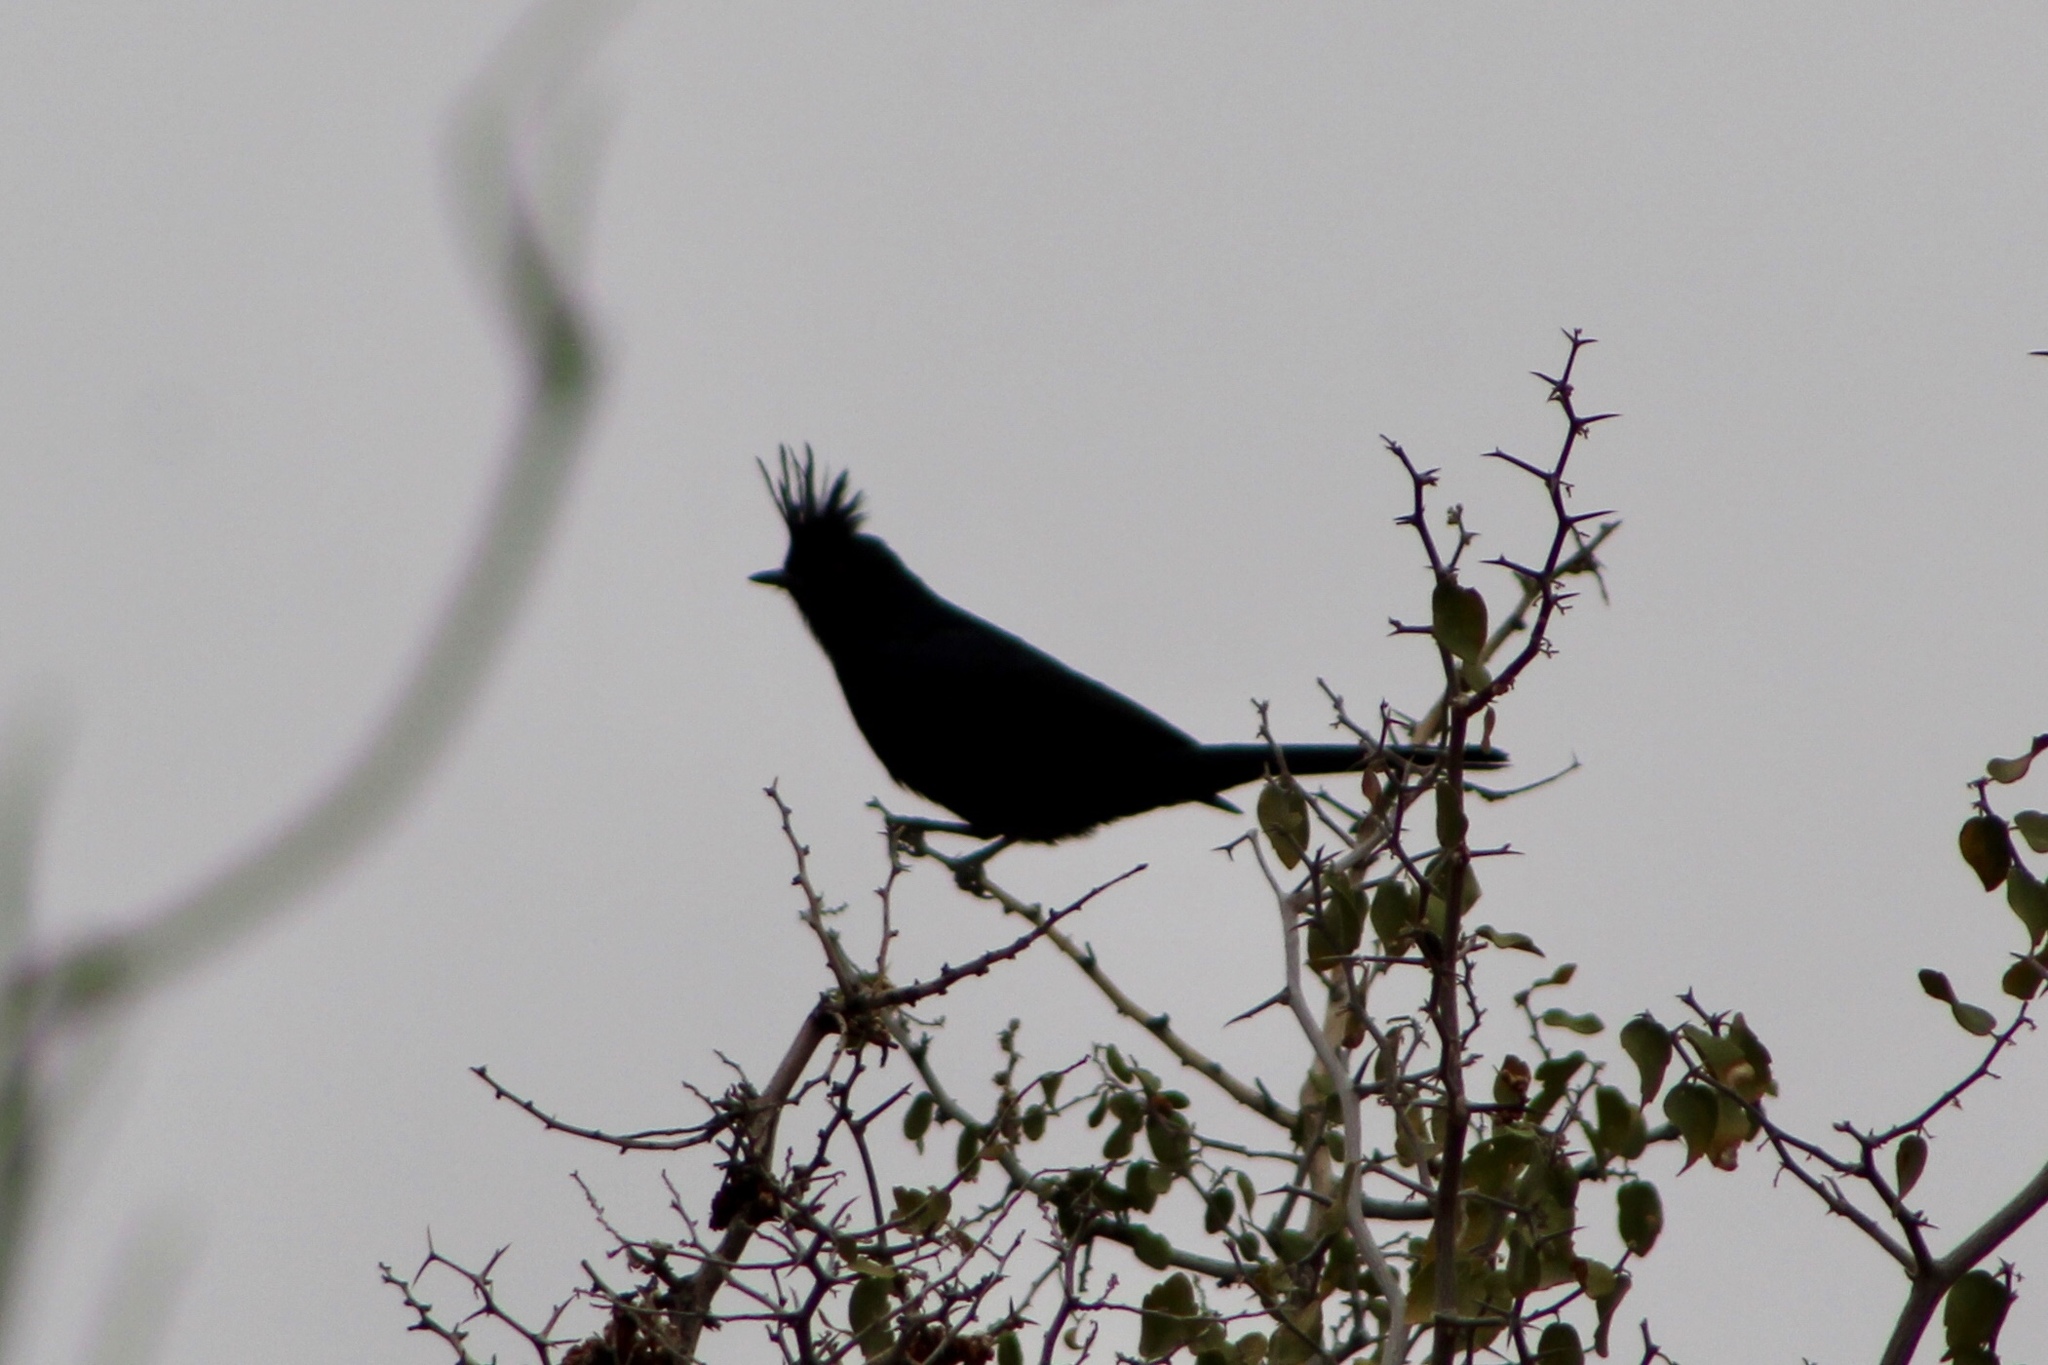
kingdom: Animalia
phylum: Chordata
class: Aves
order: Passeriformes
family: Ptilogonatidae
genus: Phainopepla
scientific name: Phainopepla nitens
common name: Phainopepla
